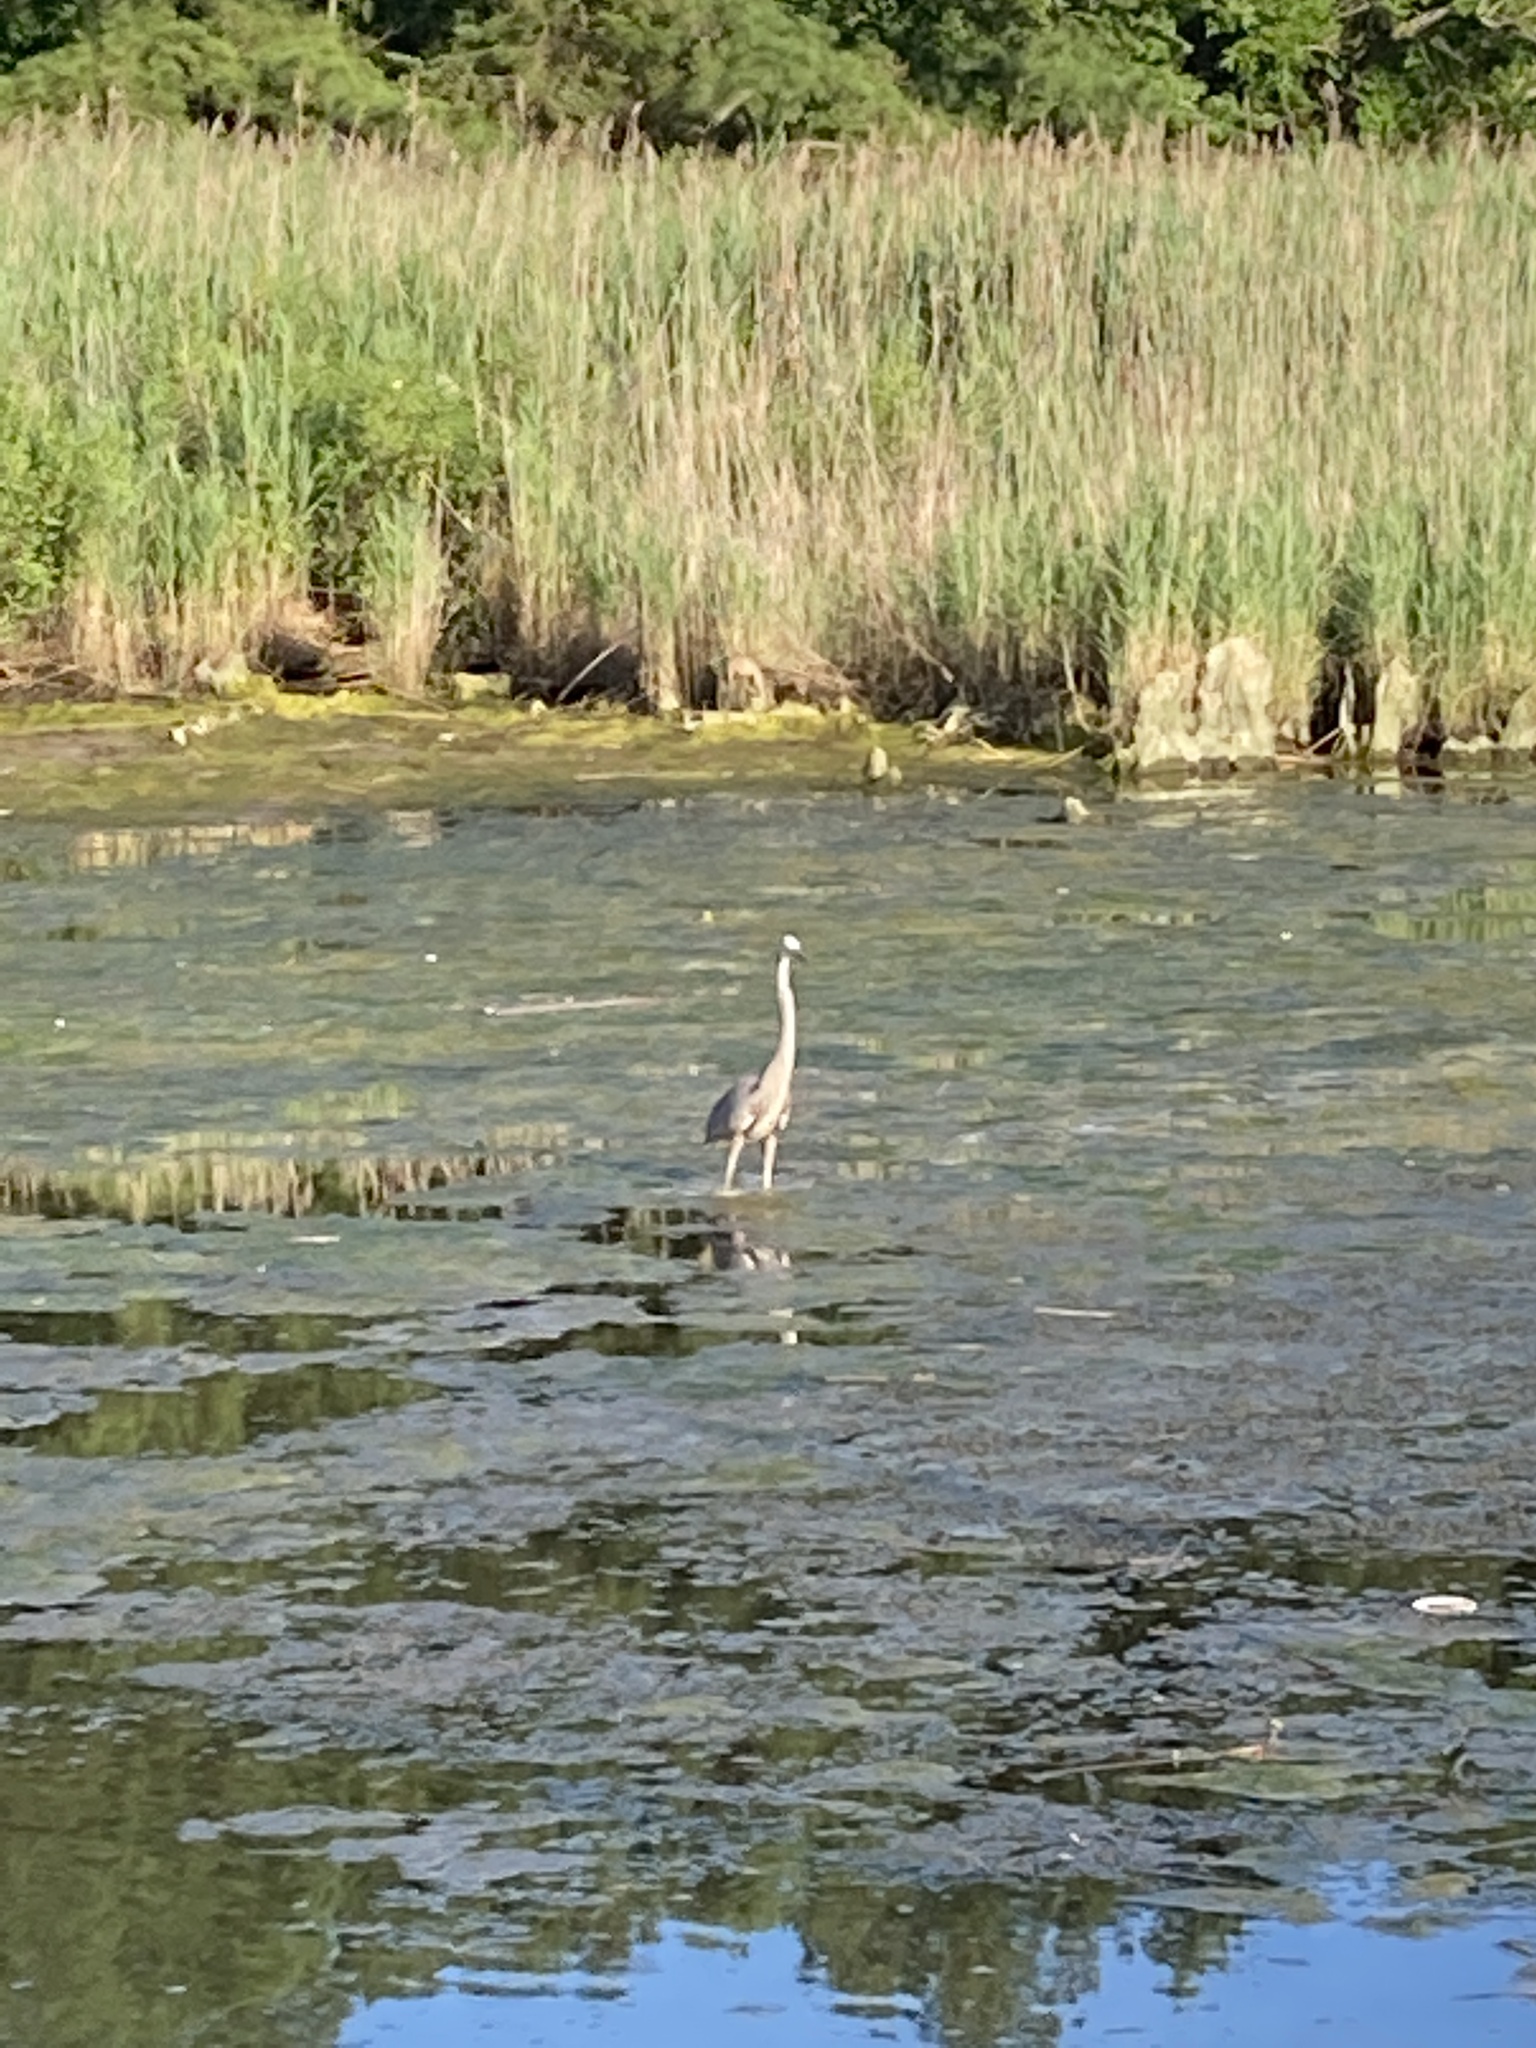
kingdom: Animalia
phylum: Chordata
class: Aves
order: Pelecaniformes
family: Ardeidae
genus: Ardea
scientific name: Ardea herodias
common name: Great blue heron
